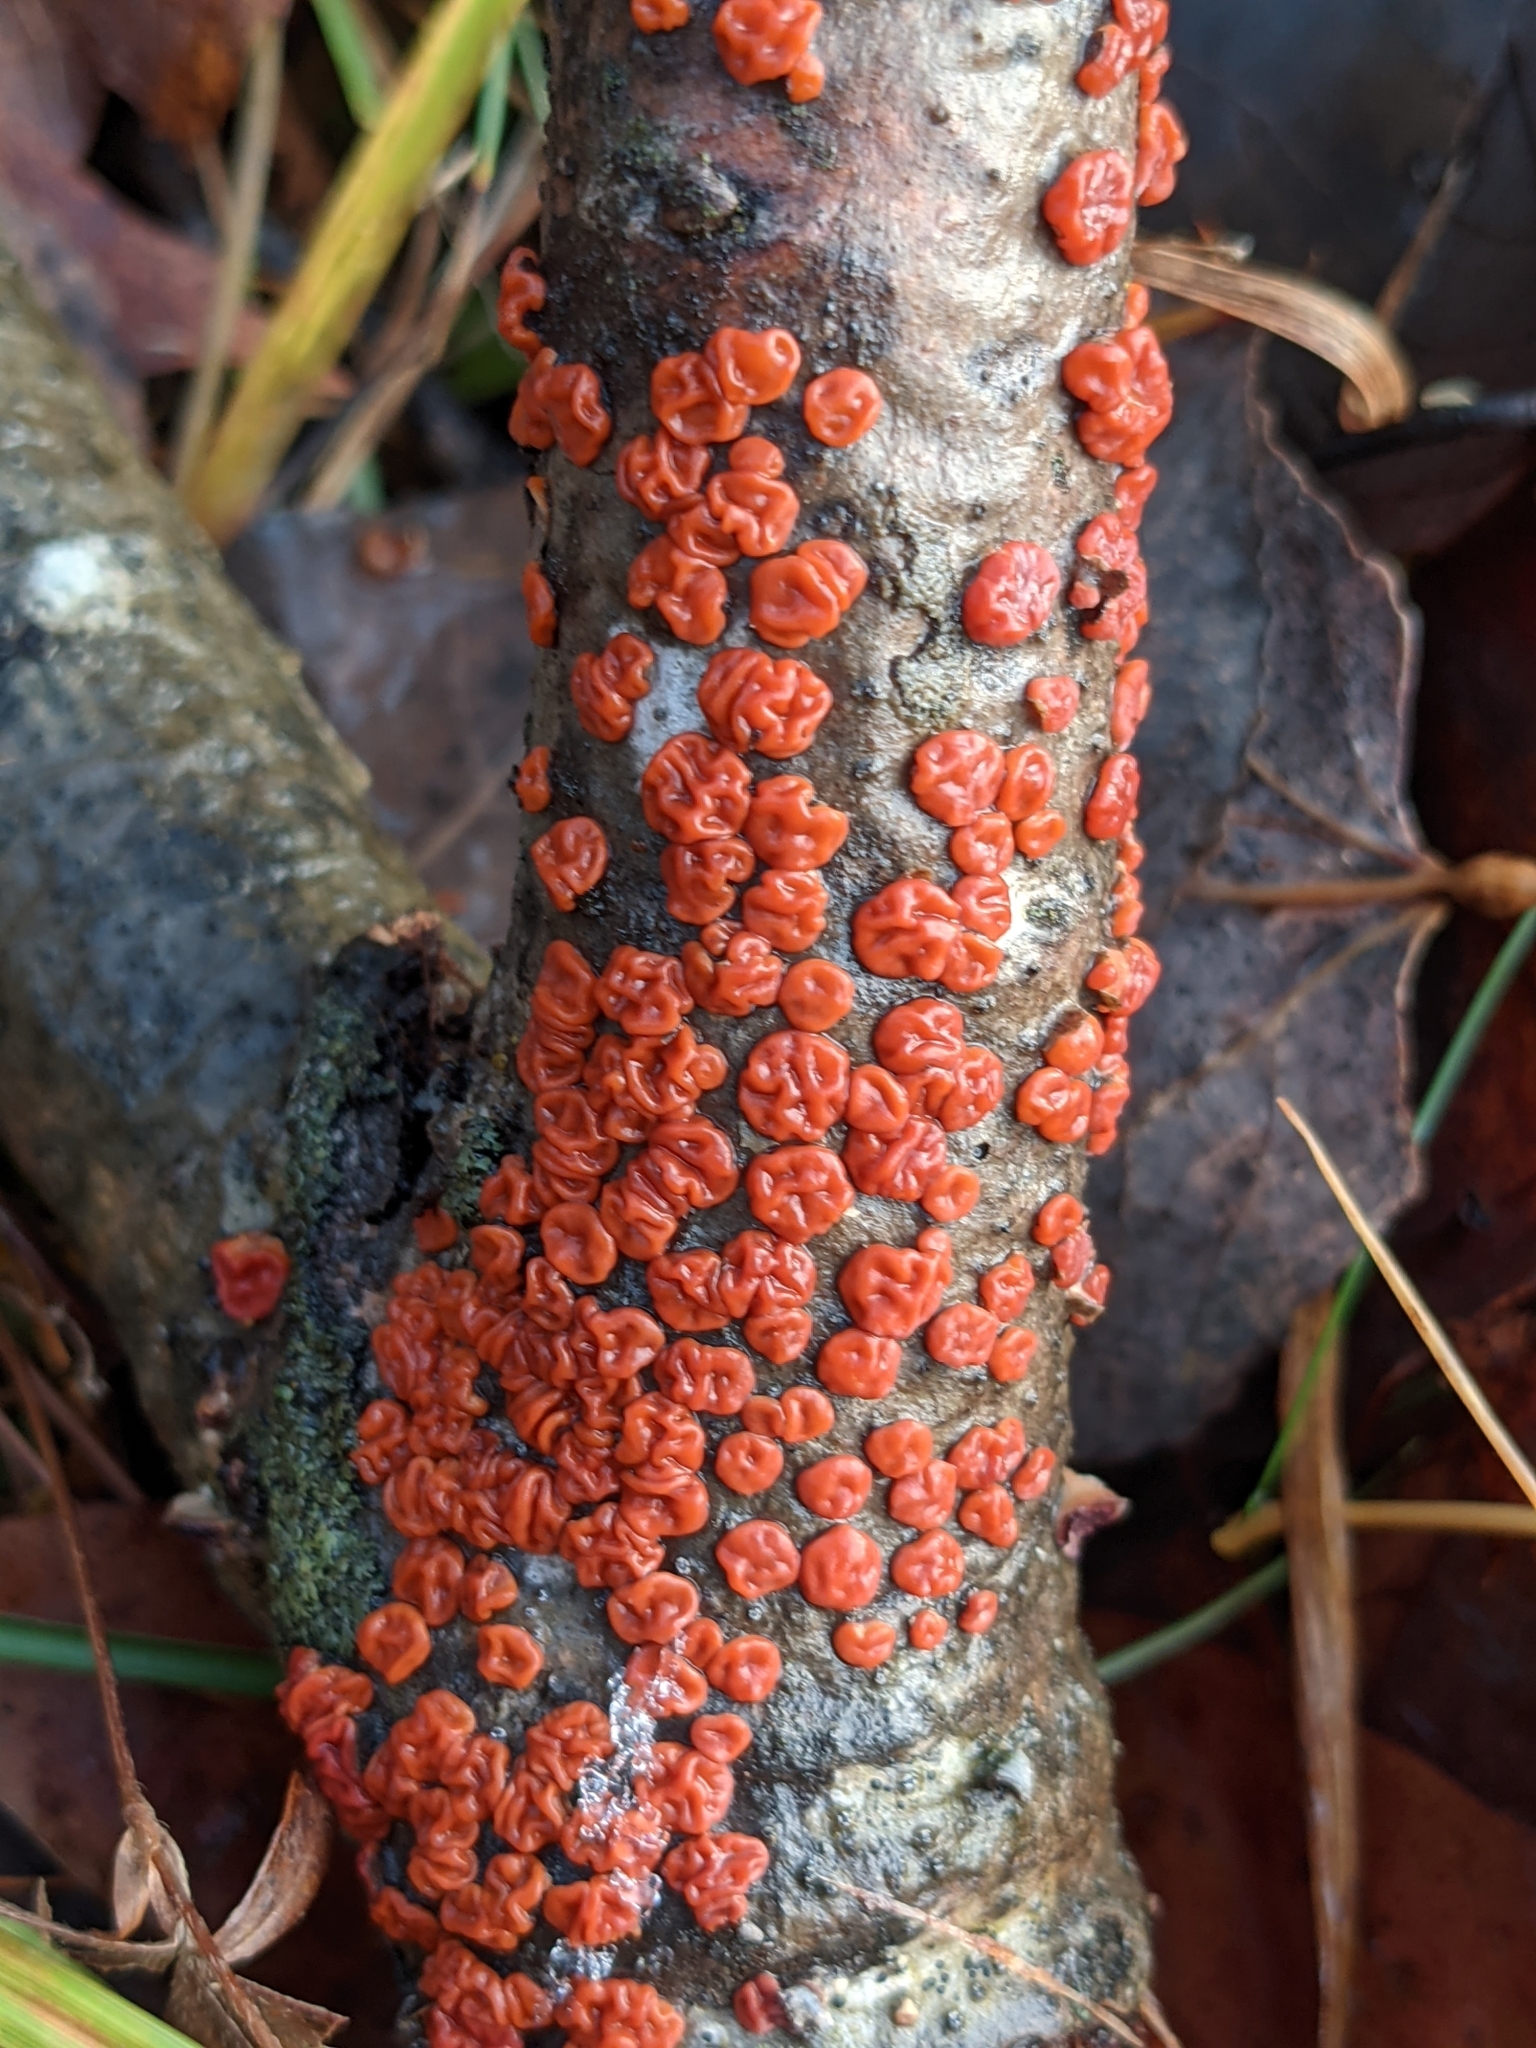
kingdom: Fungi
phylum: Basidiomycota
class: Agaricomycetes
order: Russulales
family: Peniophoraceae
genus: Peniophora
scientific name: Peniophora rufa
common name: Red tree brain fungus
